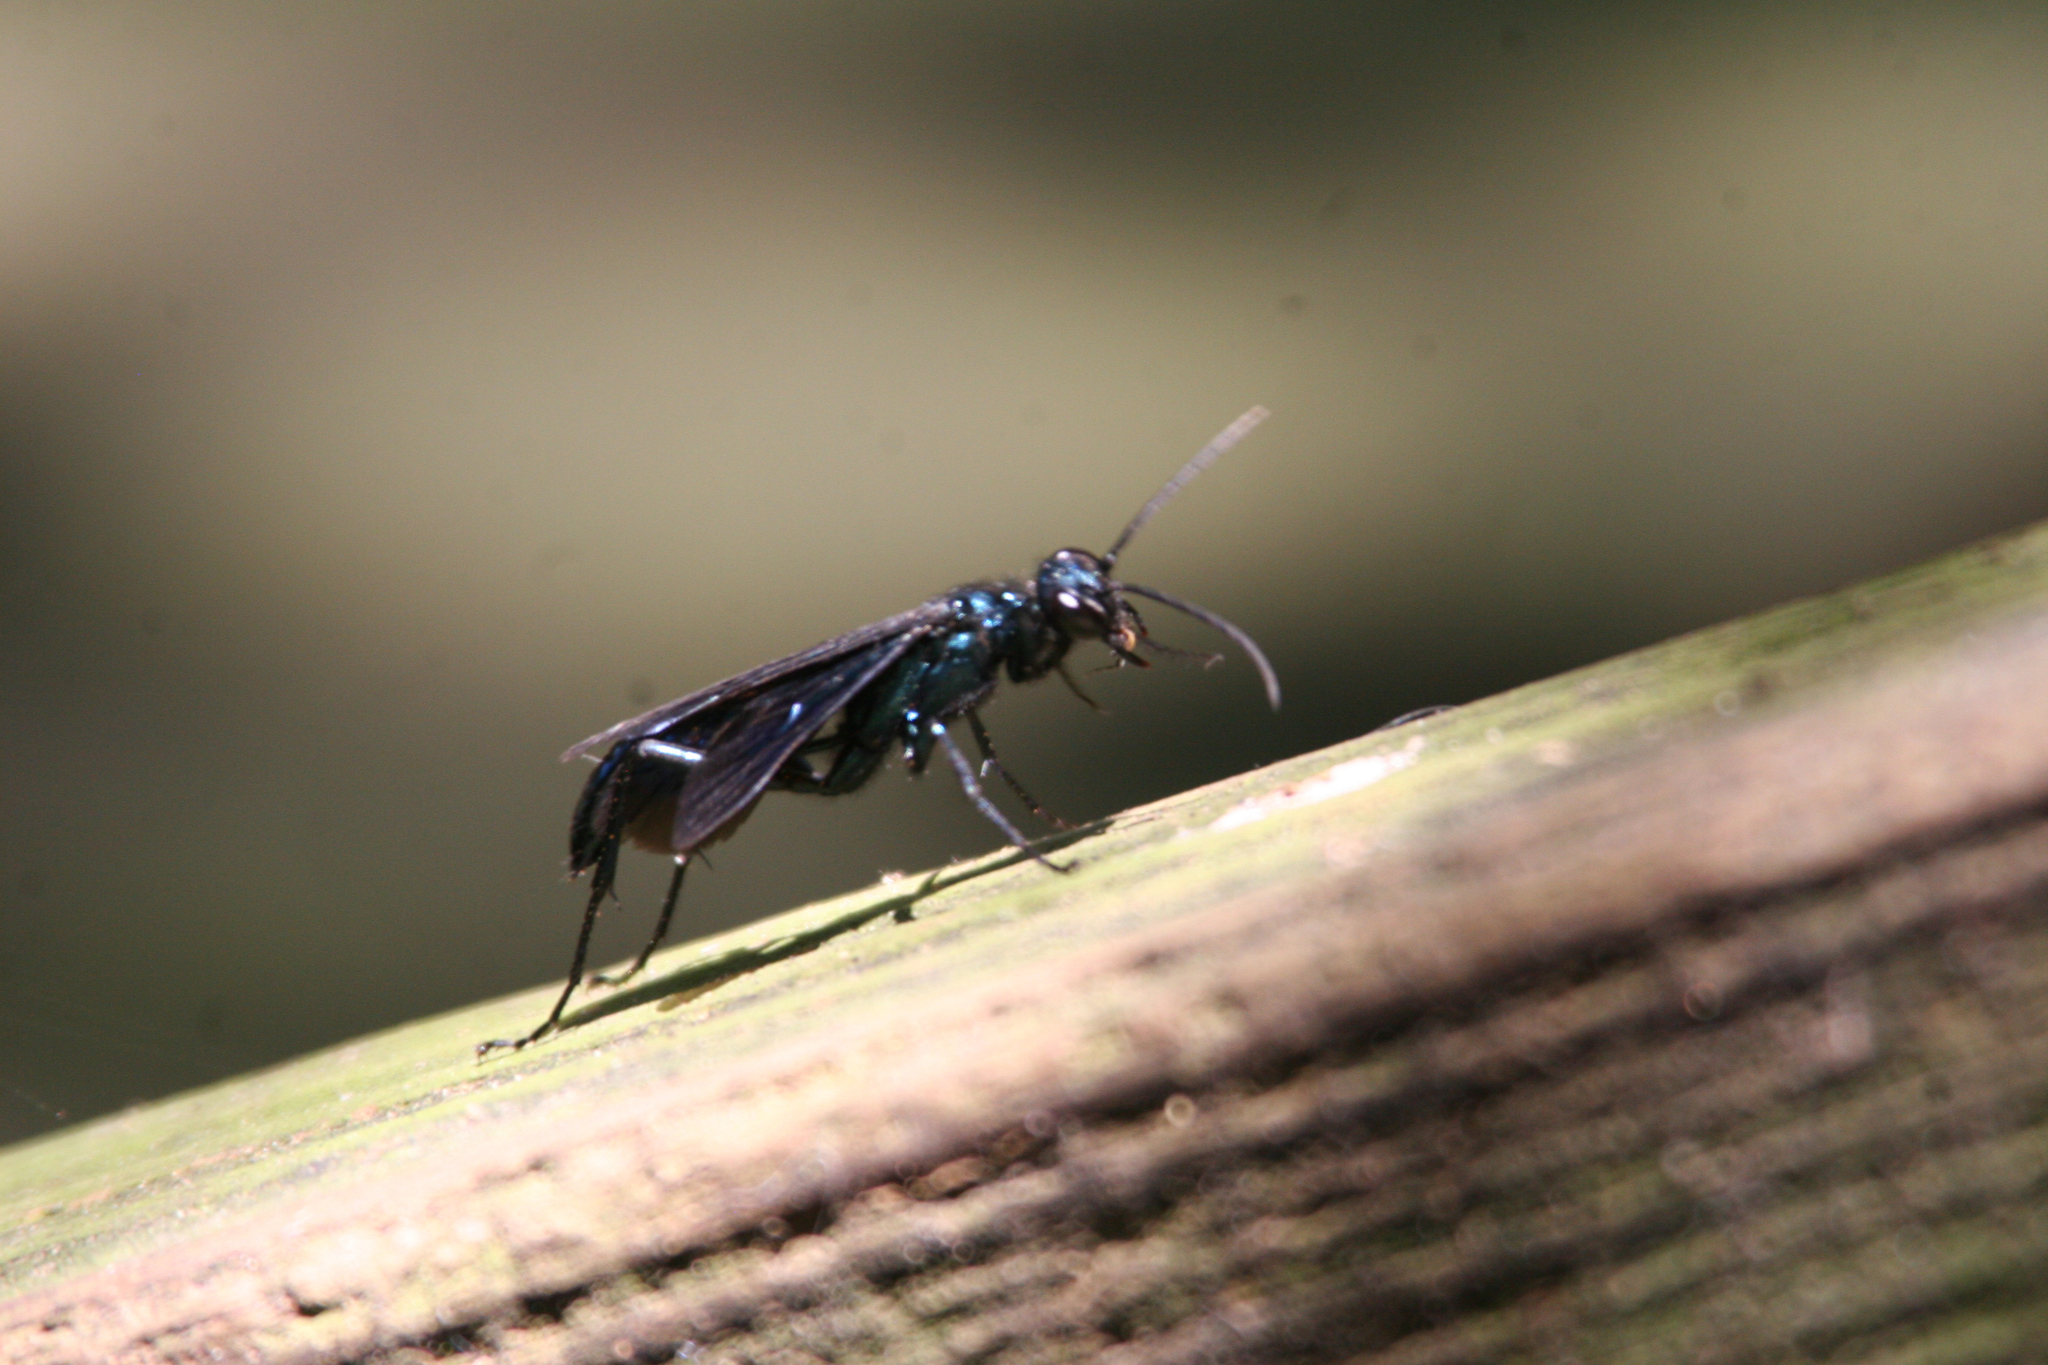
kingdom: Animalia
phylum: Arthropoda
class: Insecta
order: Hymenoptera
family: Sphecidae
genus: Chalybion
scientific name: Chalybion californicum
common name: Mud dauber
